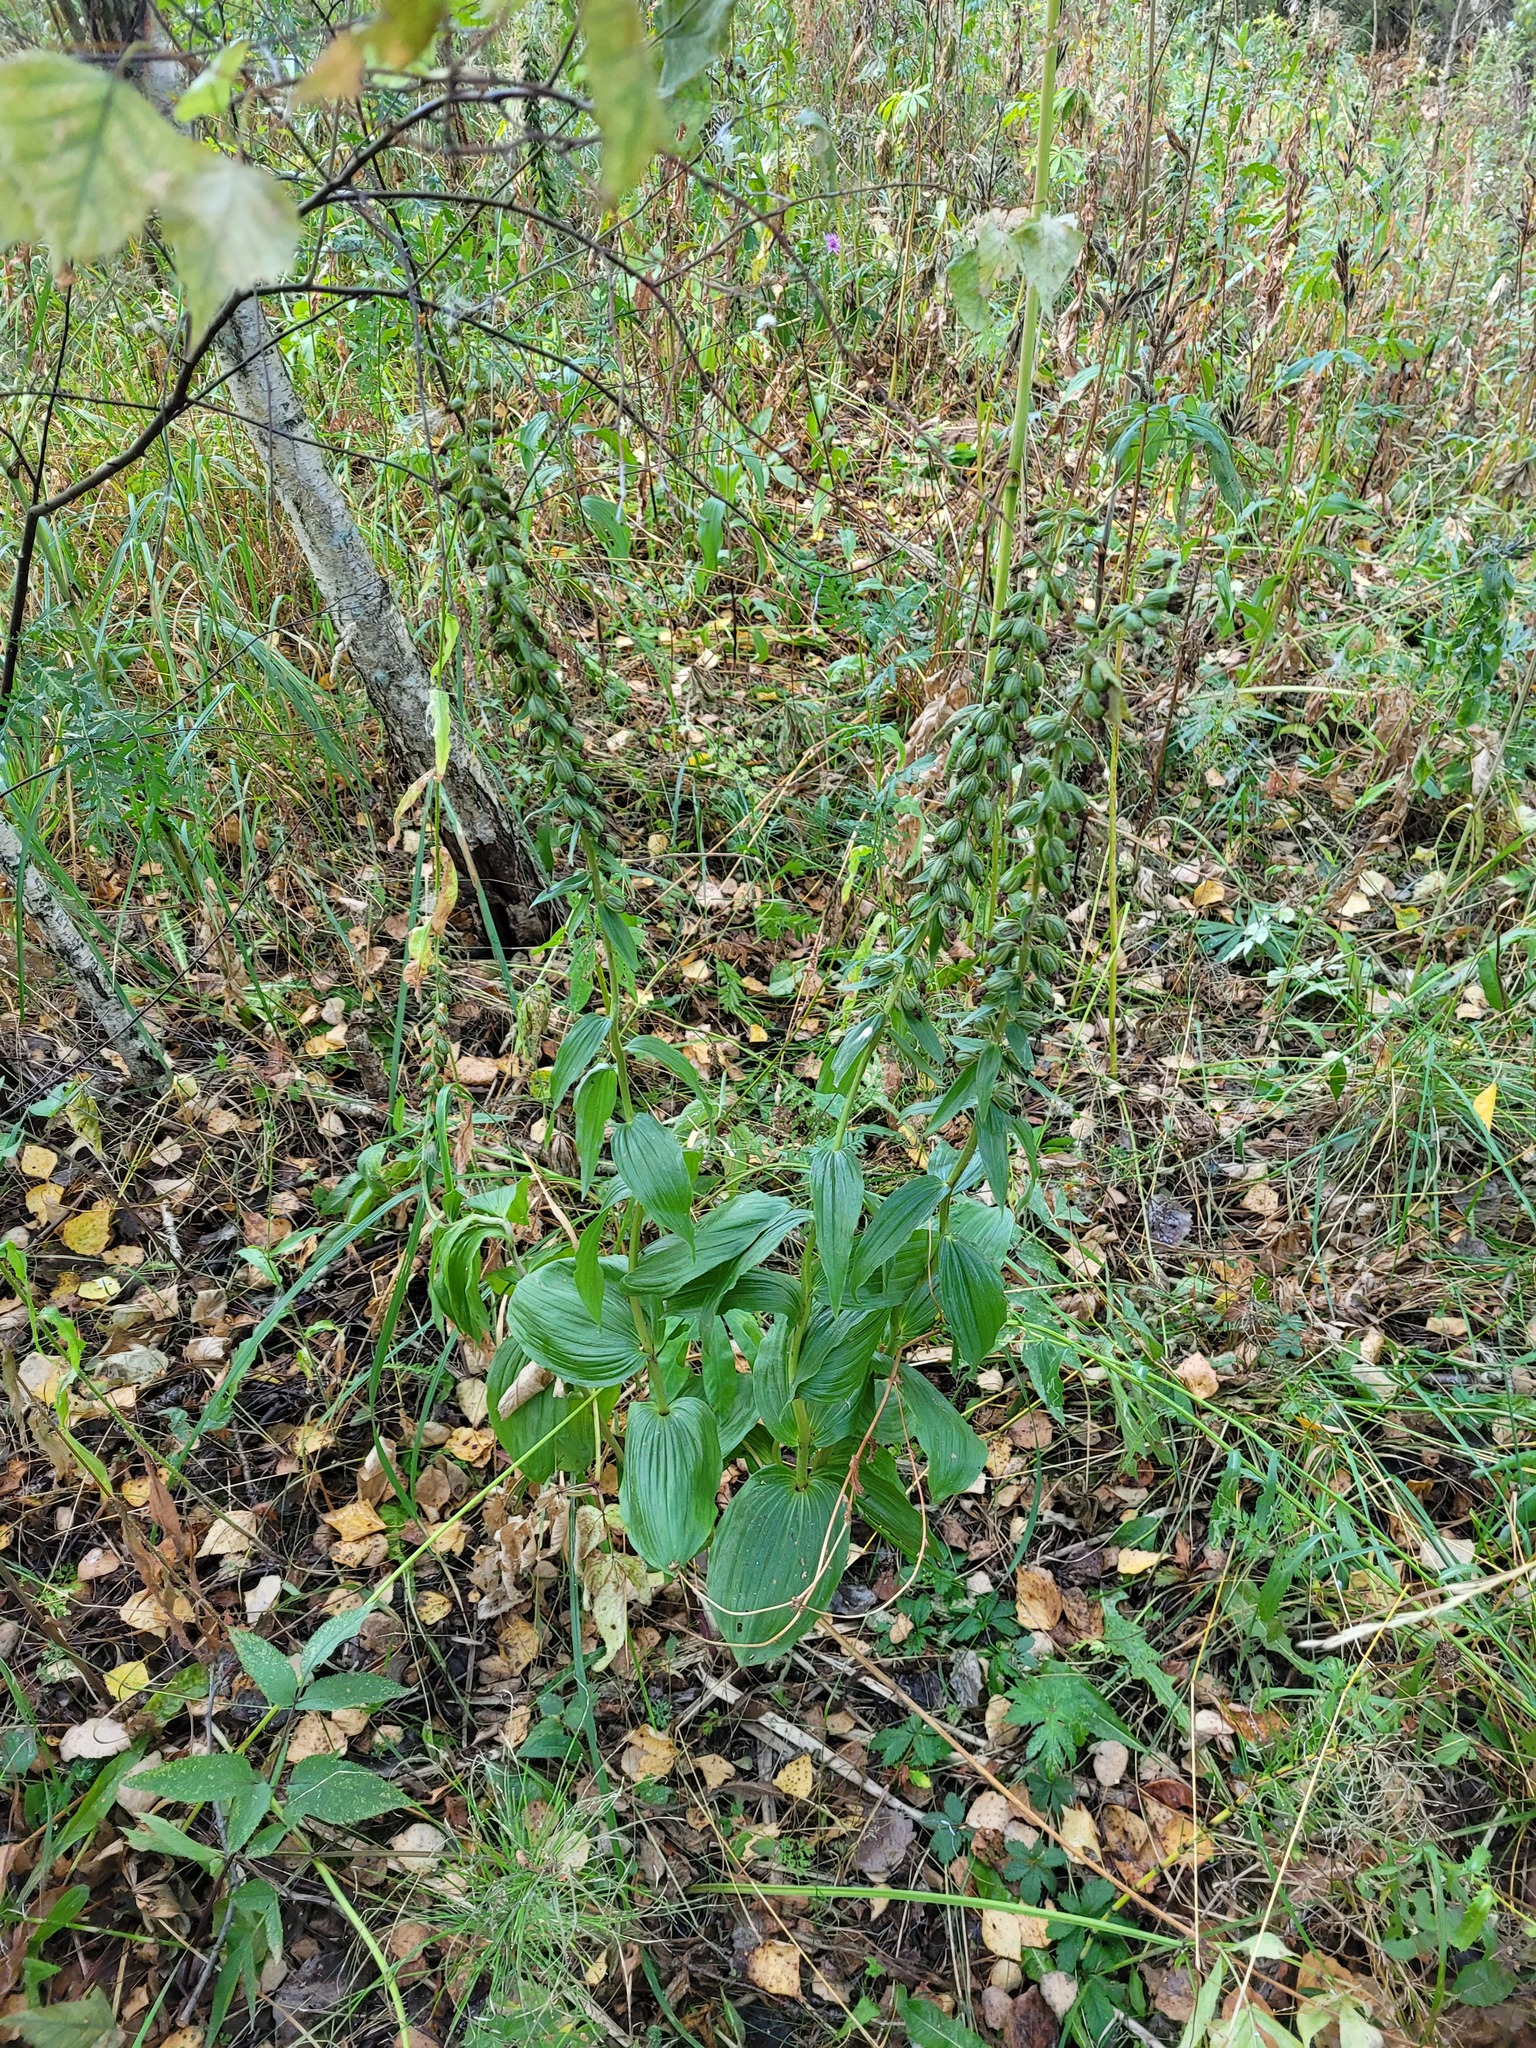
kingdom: Plantae
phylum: Tracheophyta
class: Liliopsida
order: Asparagales
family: Orchidaceae
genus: Epipactis
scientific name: Epipactis helleborine
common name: Broad-leaved helleborine
